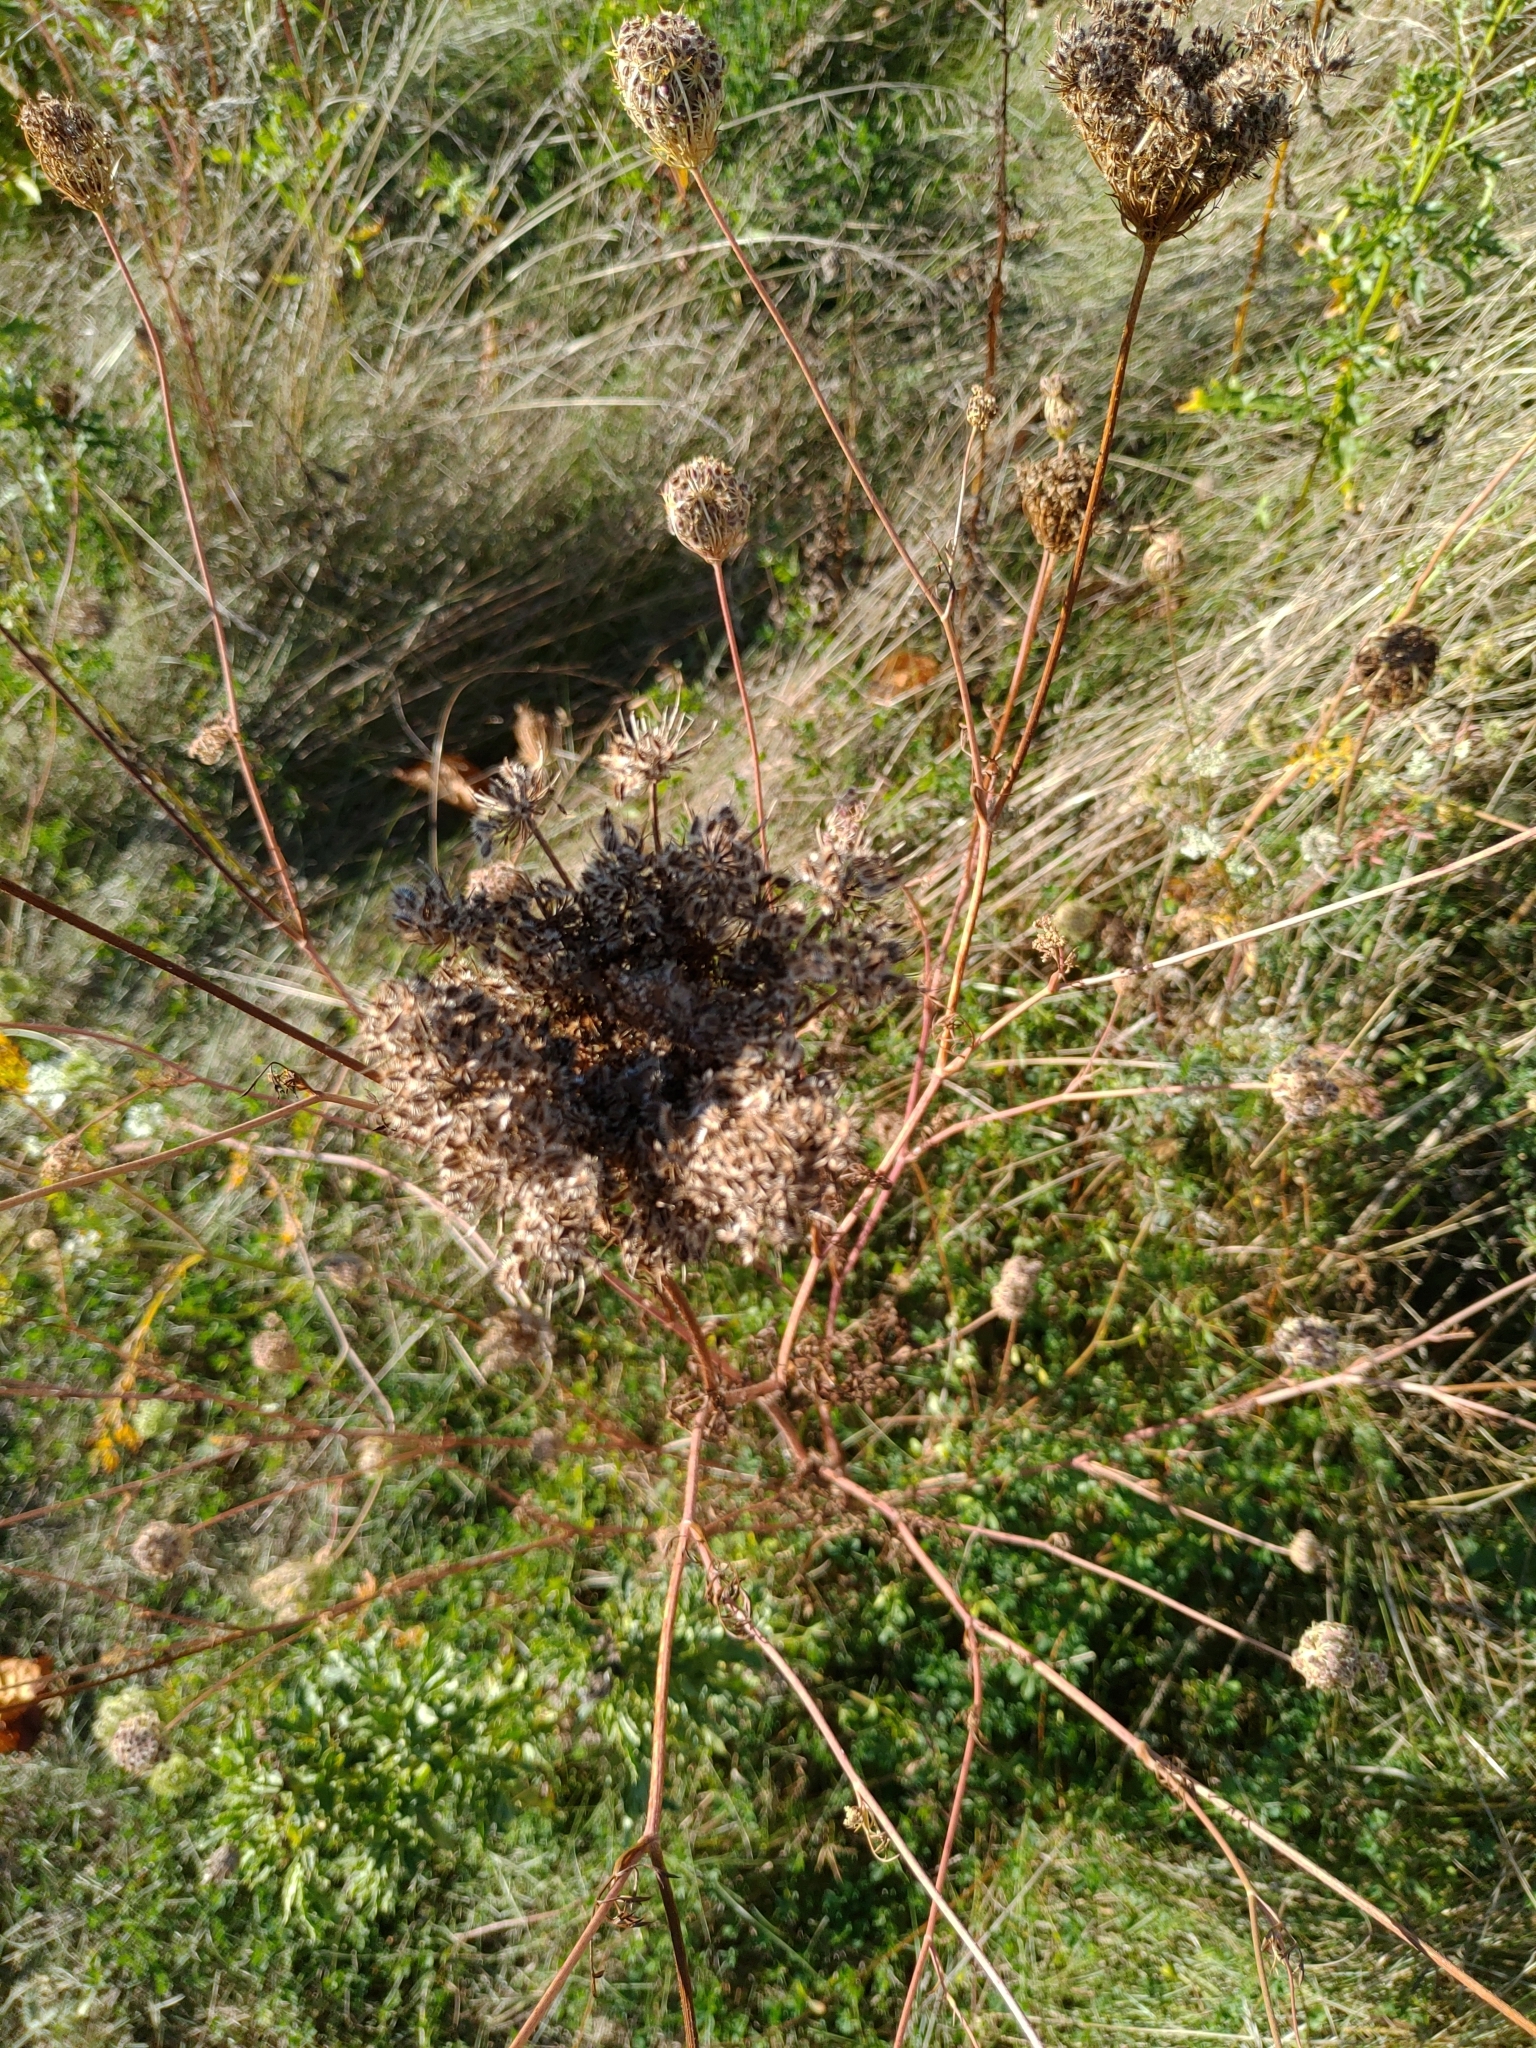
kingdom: Plantae
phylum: Tracheophyta
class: Magnoliopsida
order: Apiales
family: Apiaceae
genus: Daucus
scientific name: Daucus carota
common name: Wild carrot
